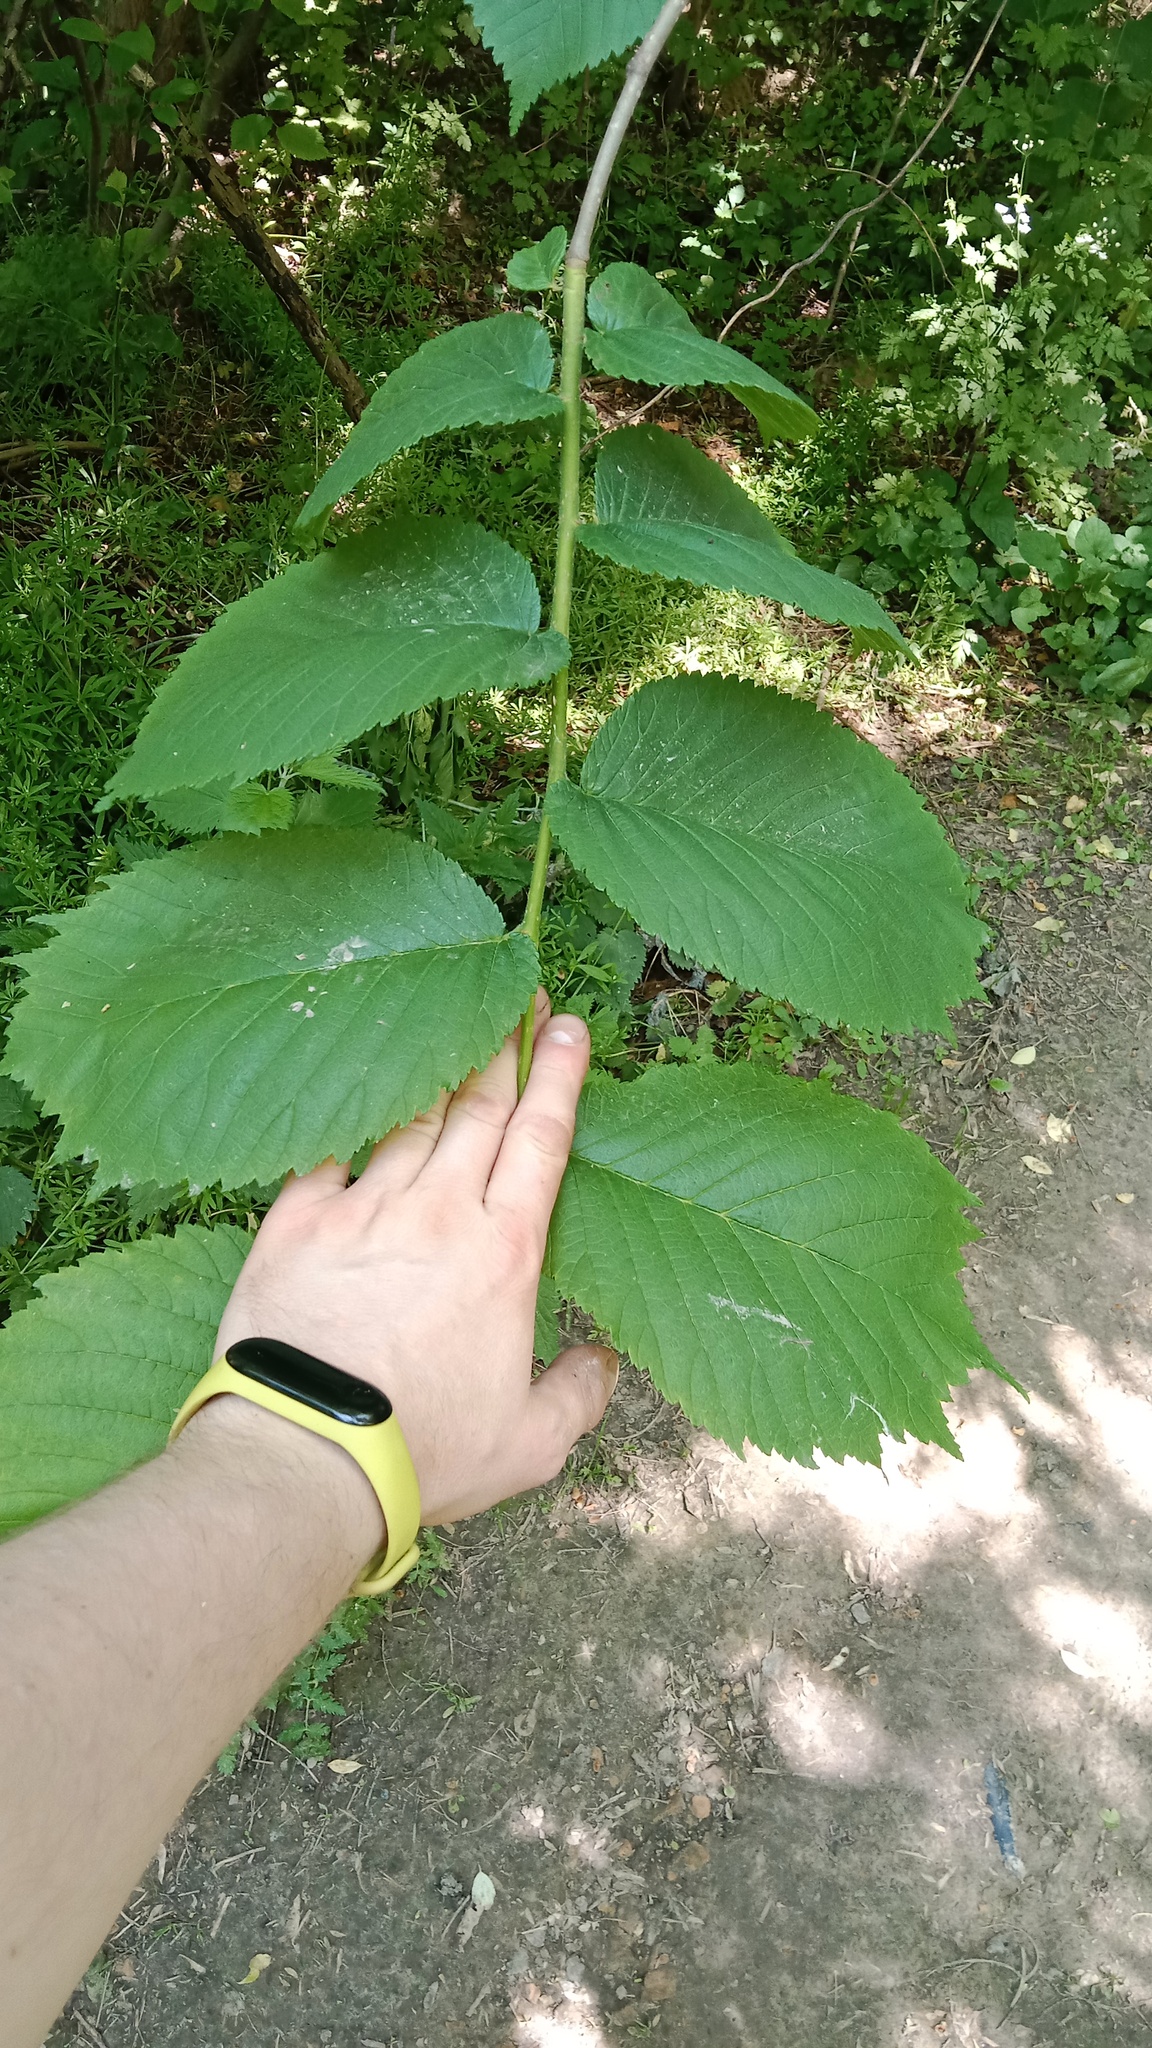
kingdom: Plantae
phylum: Tracheophyta
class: Magnoliopsida
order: Rosales
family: Ulmaceae
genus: Ulmus
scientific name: Ulmus glabra
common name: Wych elm
